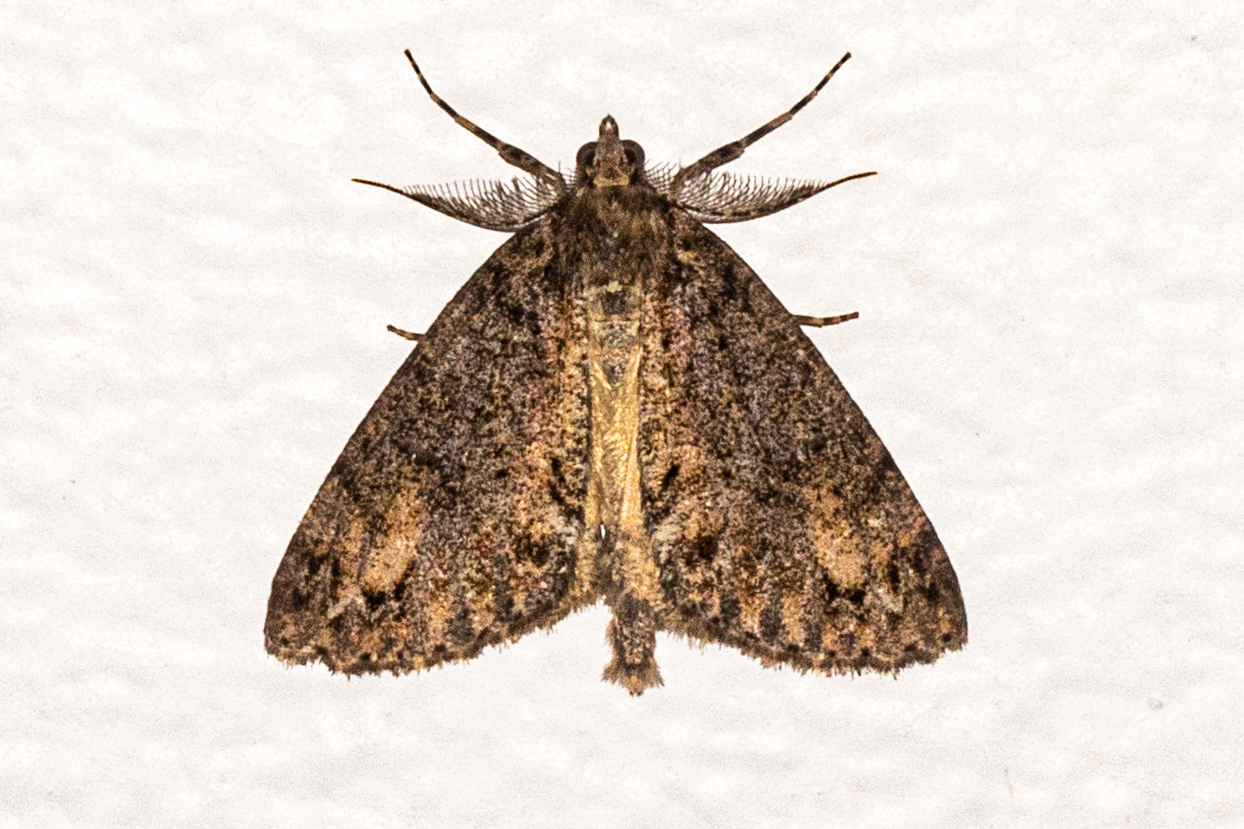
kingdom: Animalia
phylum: Arthropoda
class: Insecta
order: Lepidoptera
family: Geometridae
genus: Pseudocoremia
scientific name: Pseudocoremia suavis
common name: Common forest looper
